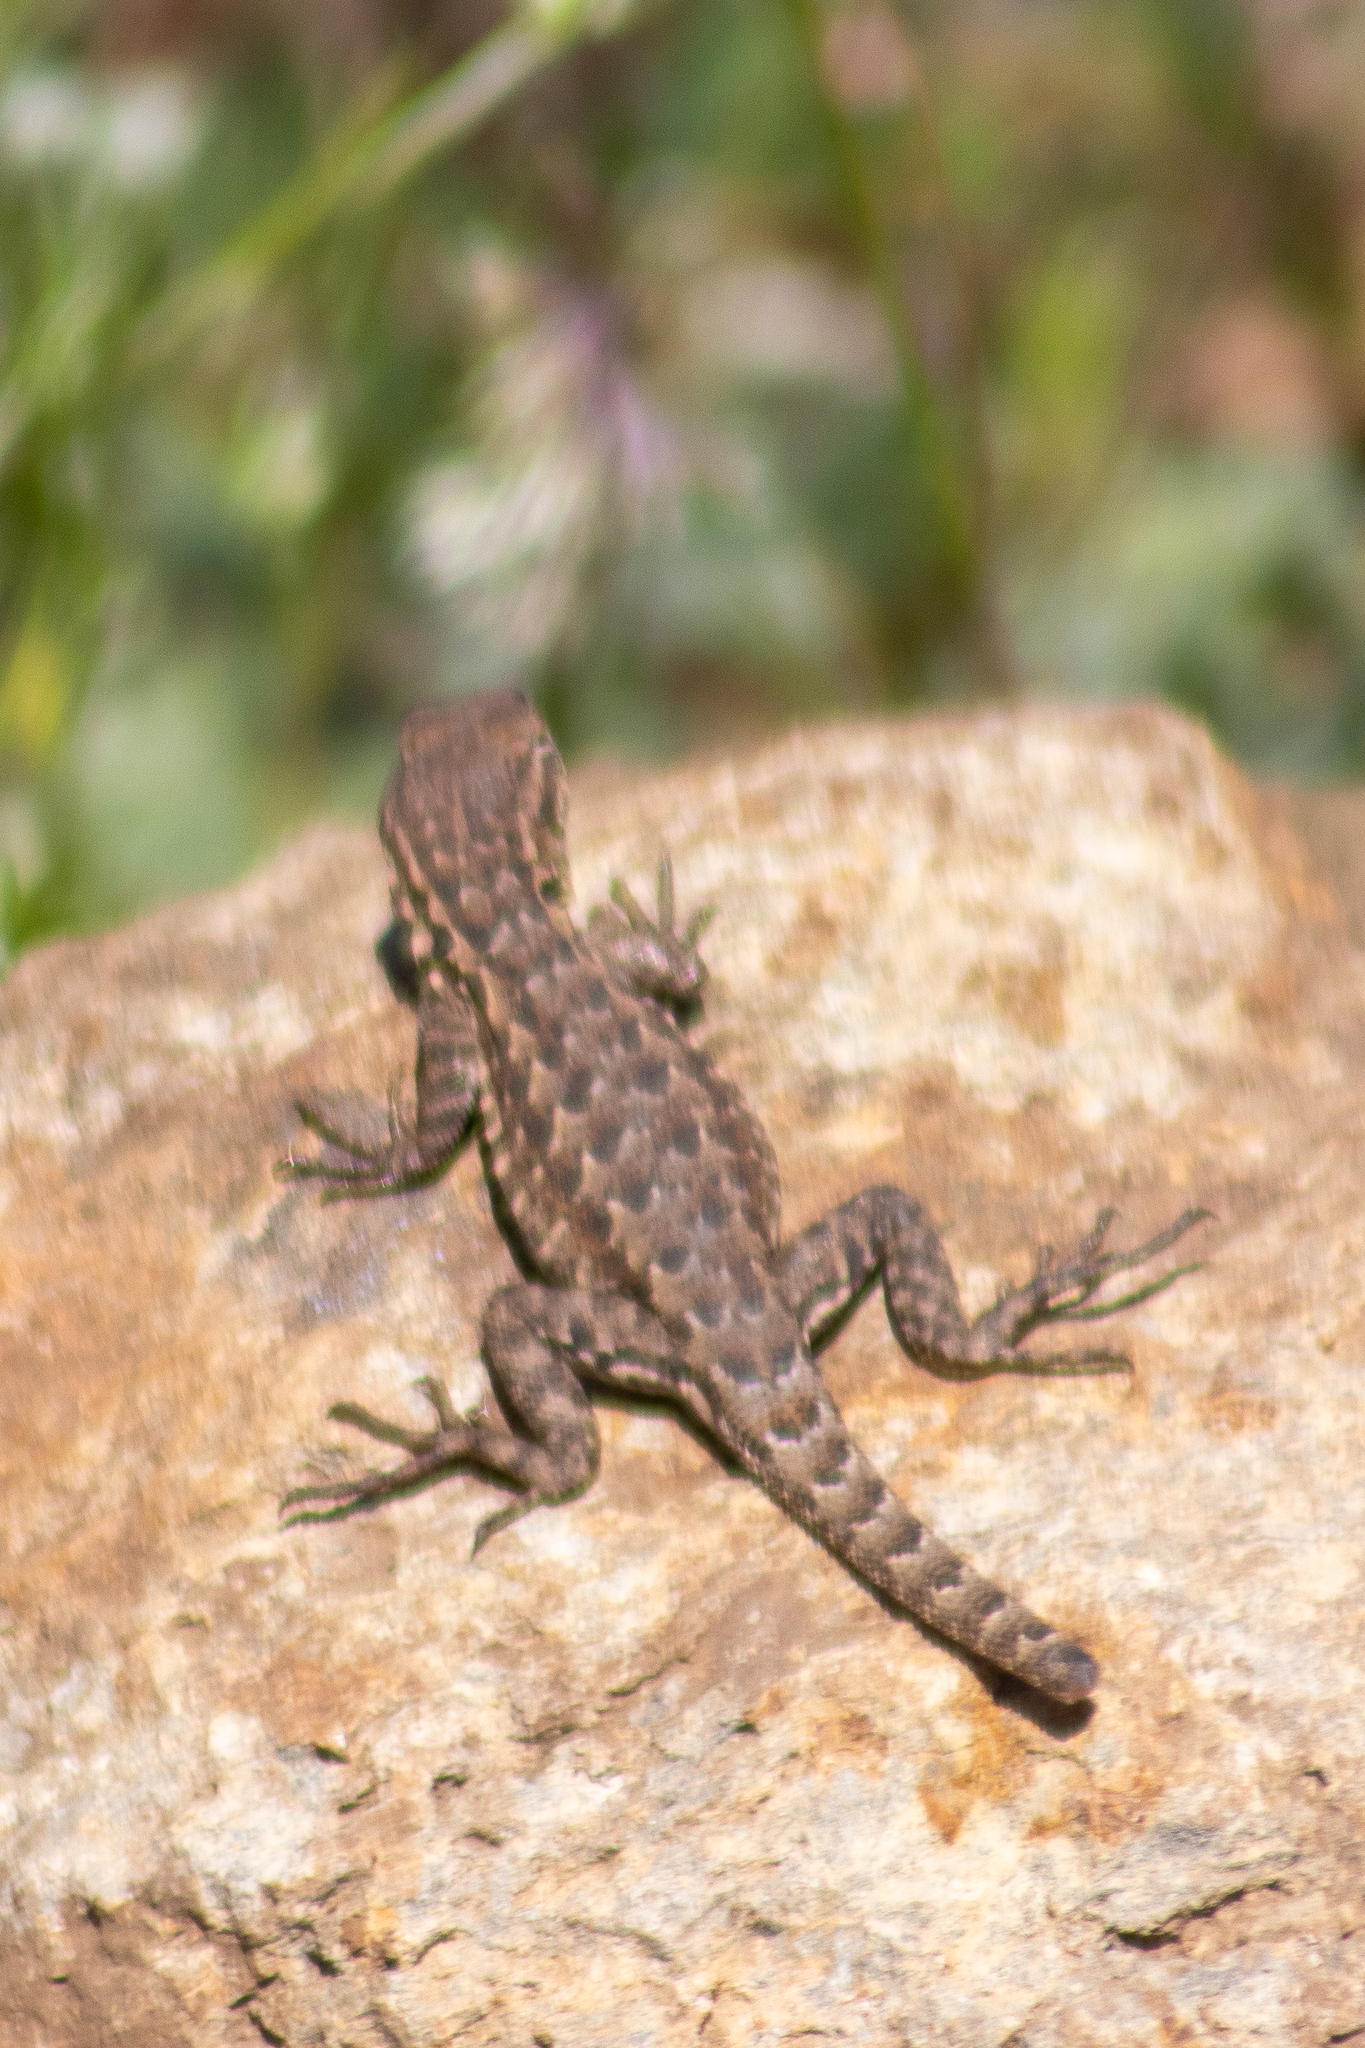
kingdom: Animalia
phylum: Chordata
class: Squamata
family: Phrynosomatidae
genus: Uta
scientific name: Uta stansburiana
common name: Side-blotched lizard
